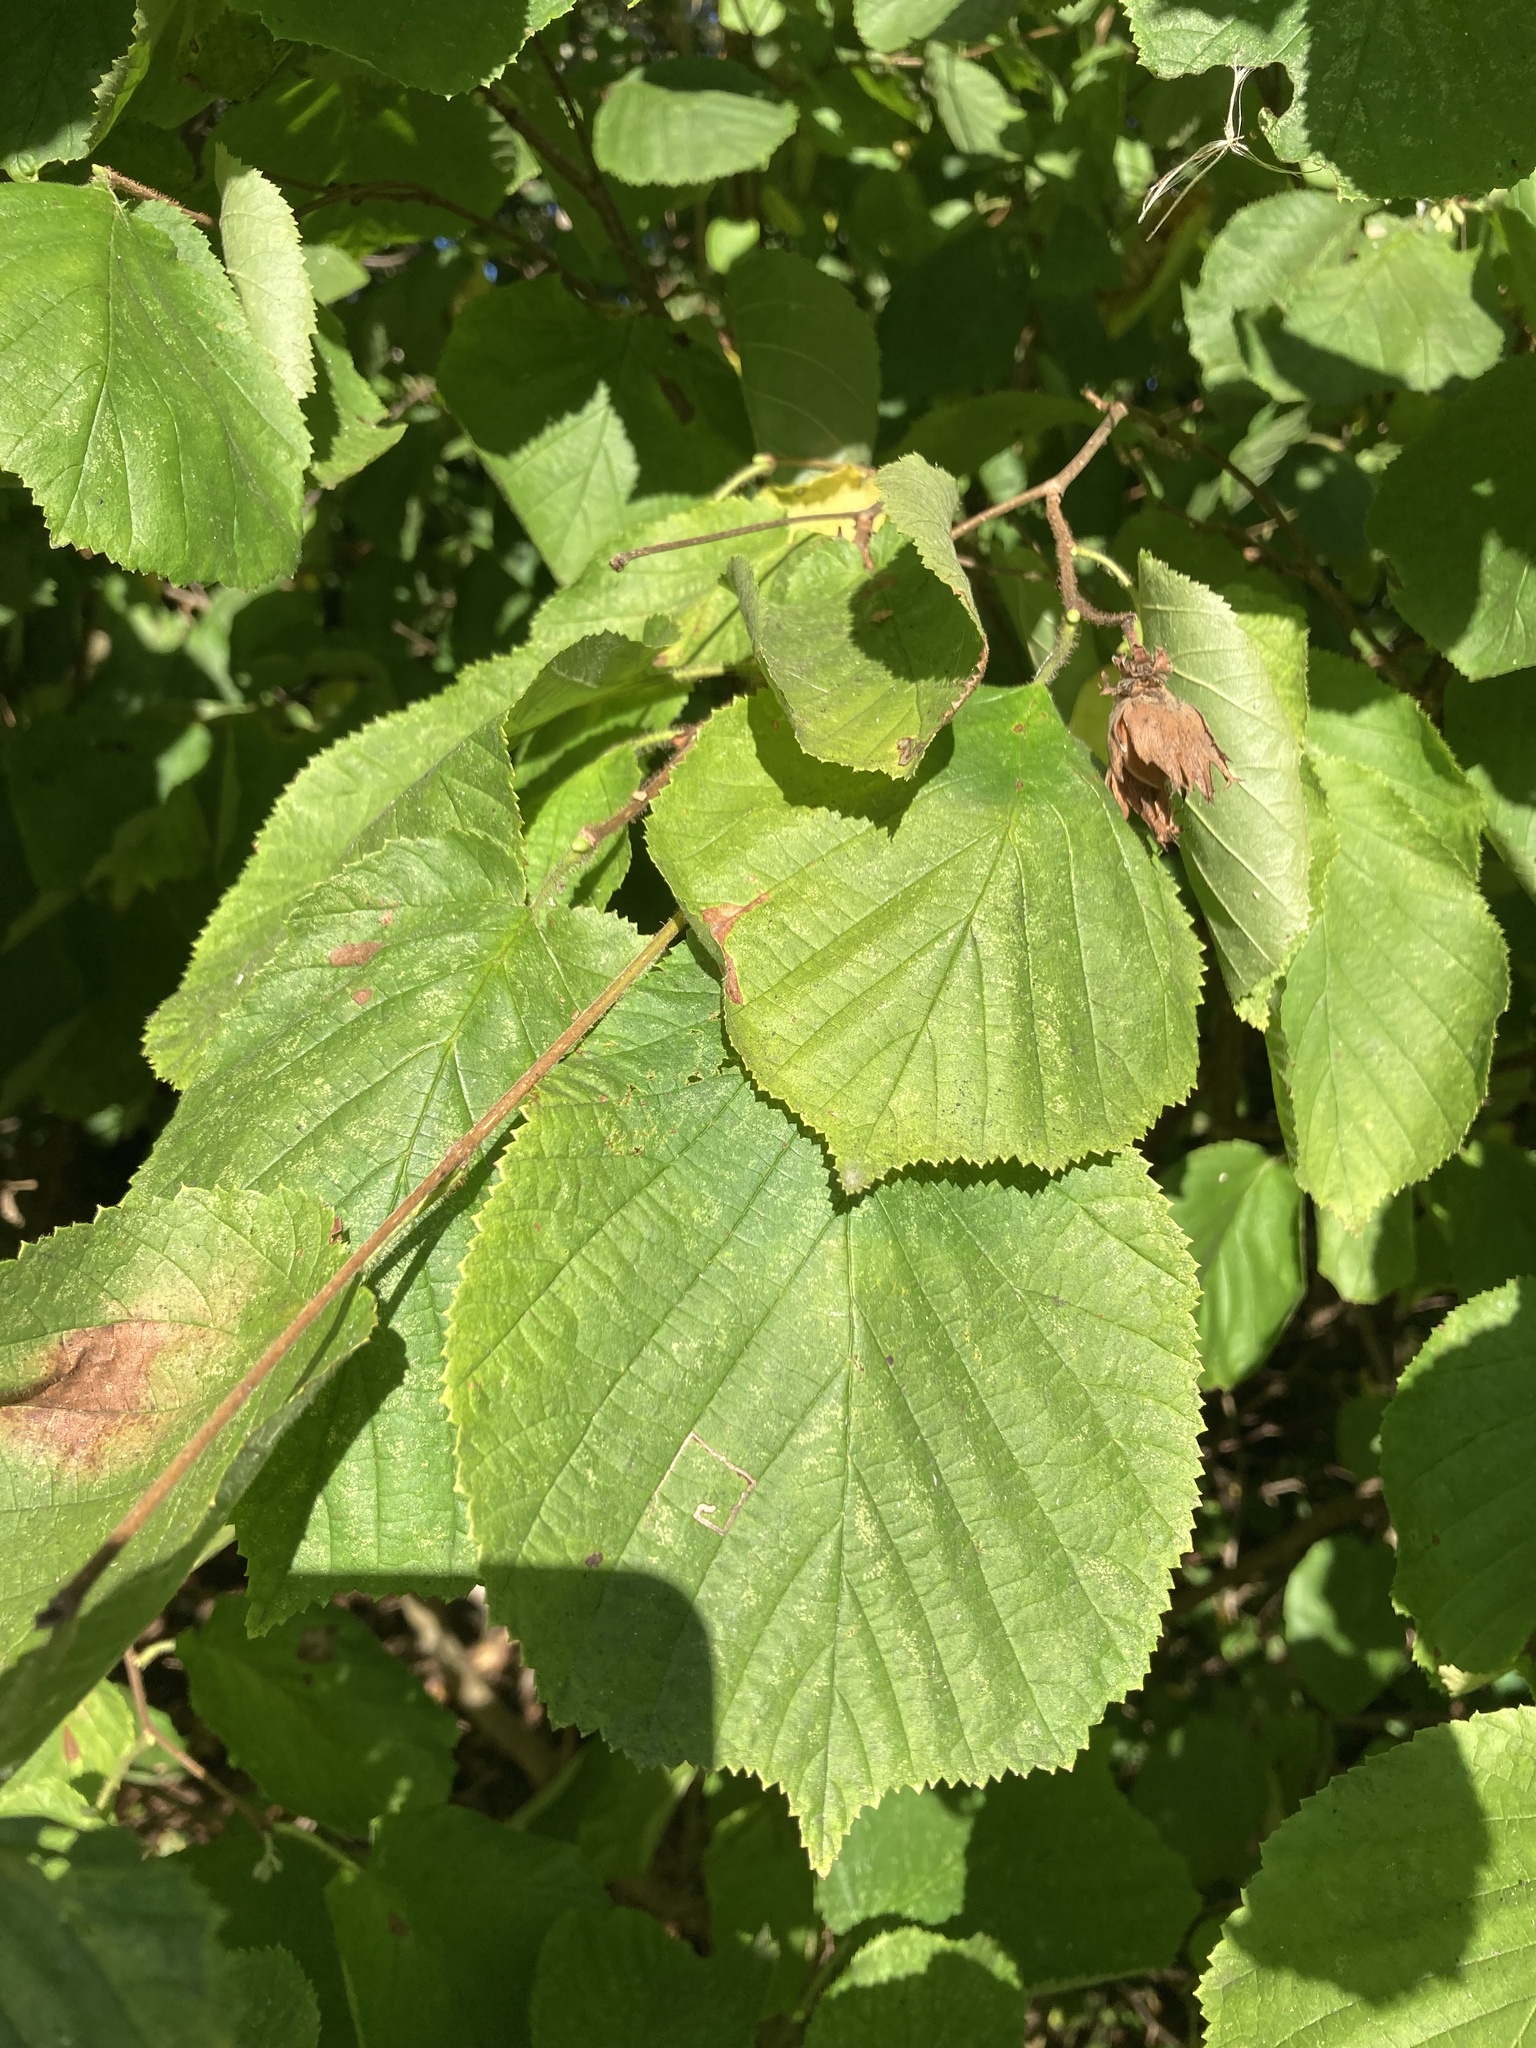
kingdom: Plantae
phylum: Tracheophyta
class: Magnoliopsida
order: Fagales
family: Betulaceae
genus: Corylus
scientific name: Corylus avellana
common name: European hazel
